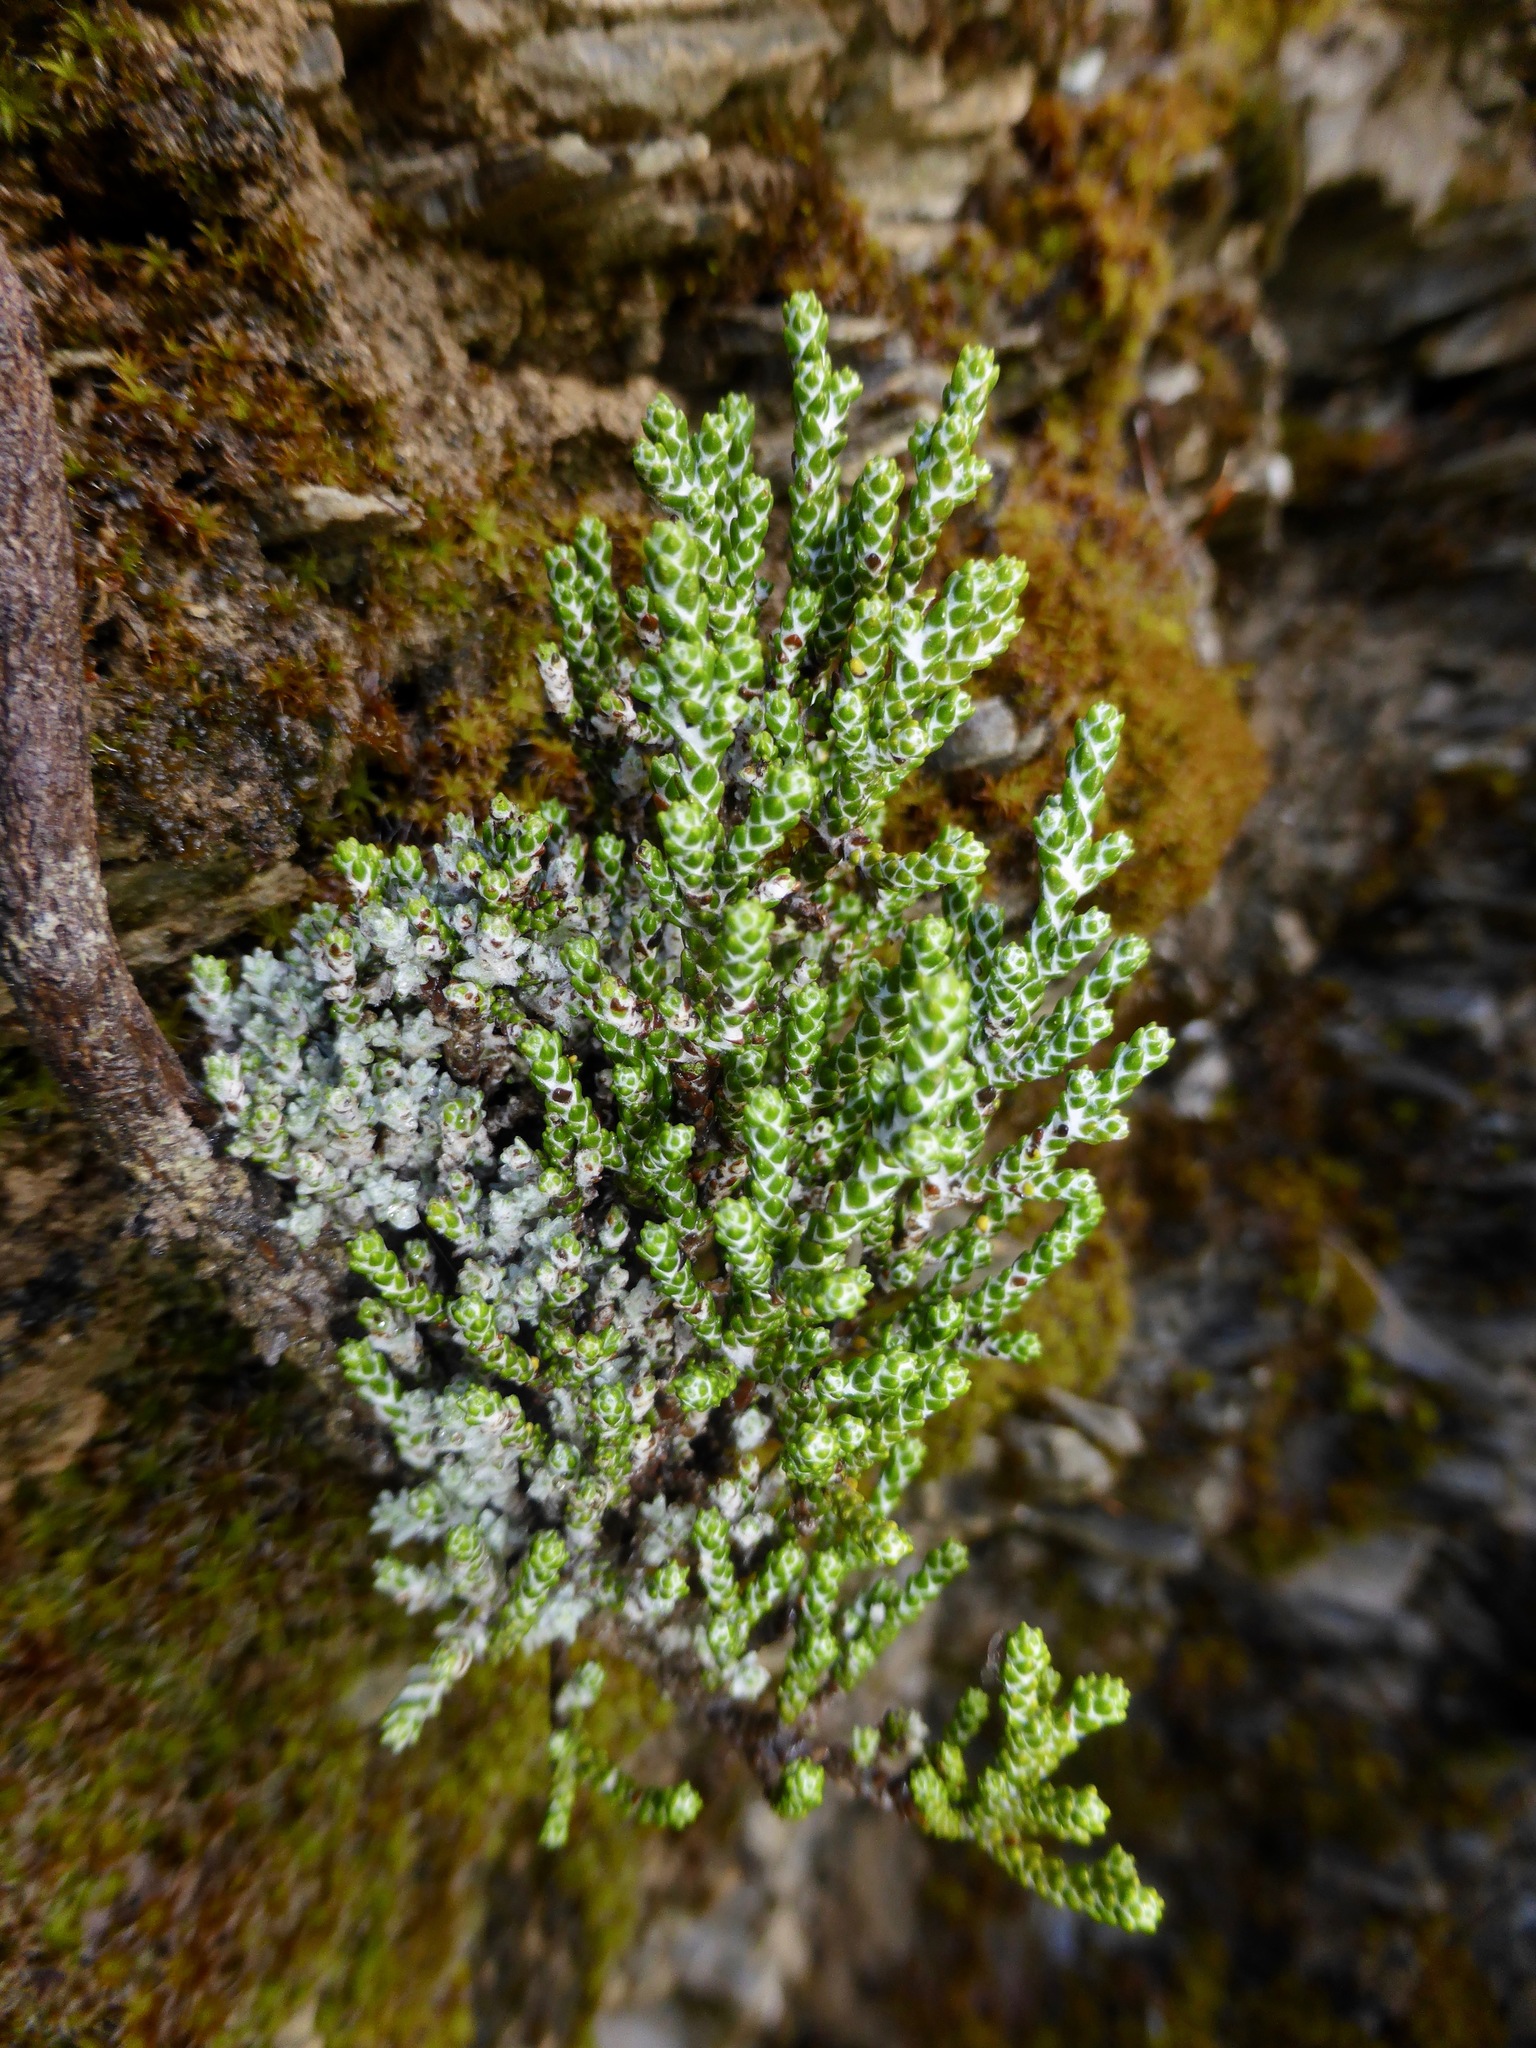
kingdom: Plantae
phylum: Tracheophyta
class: Magnoliopsida
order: Asterales
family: Asteraceae
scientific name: Asteraceae
